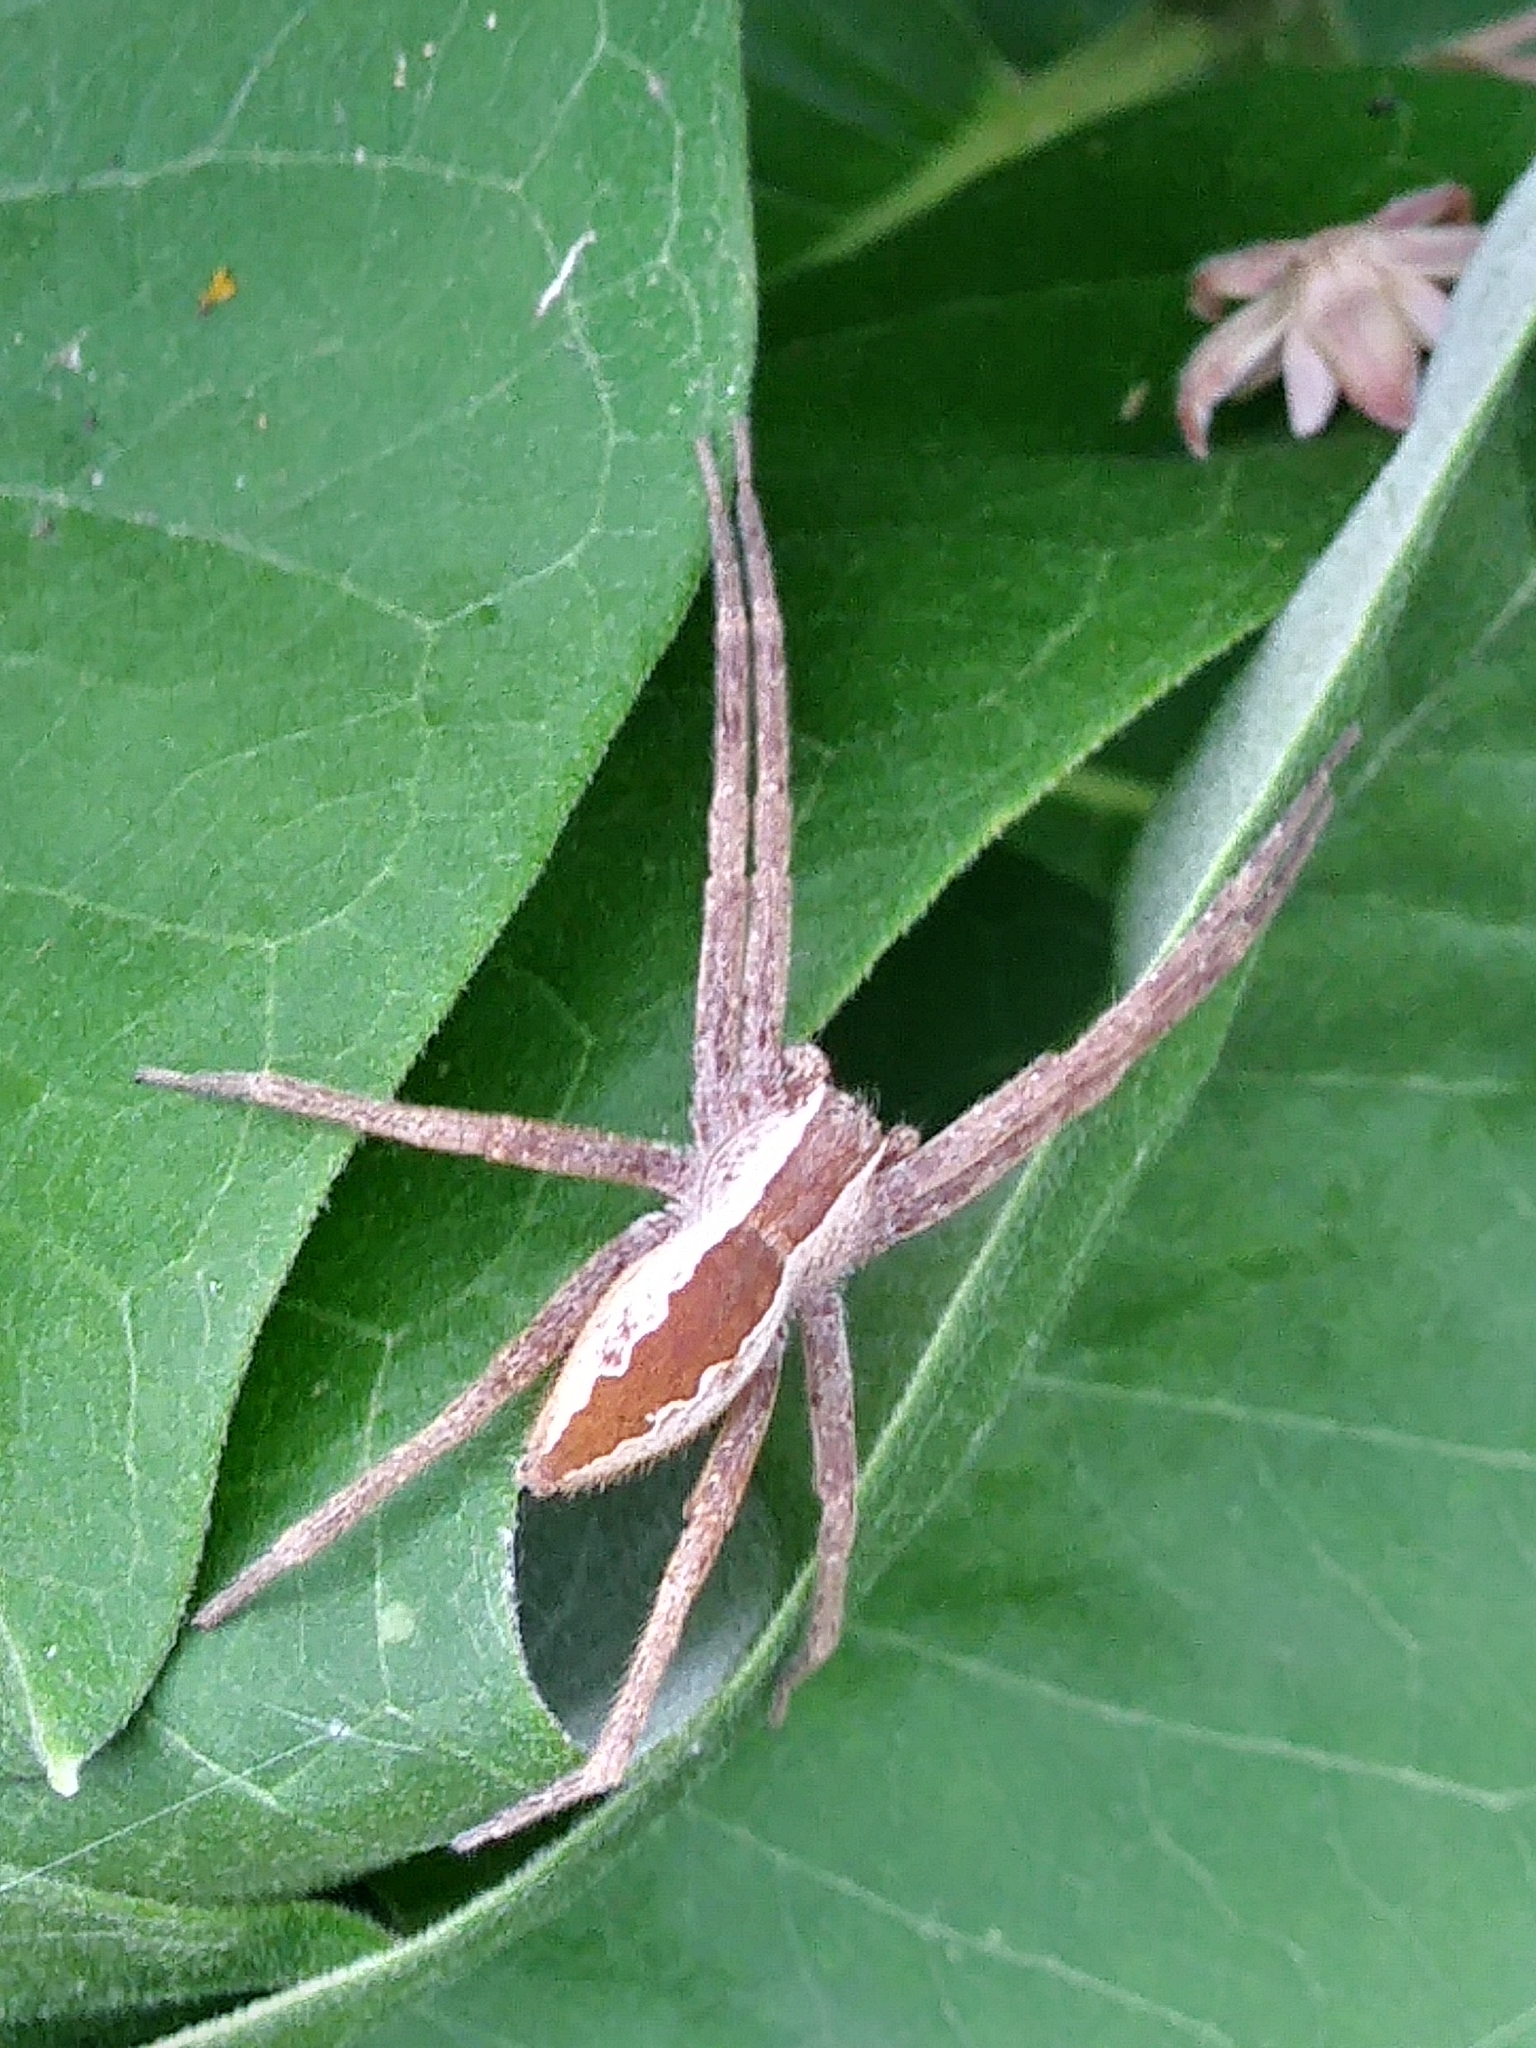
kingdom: Animalia
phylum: Arthropoda
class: Arachnida
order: Araneae
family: Pisauridae
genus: Pisaurina
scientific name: Pisaurina mira
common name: American nursery web spider
